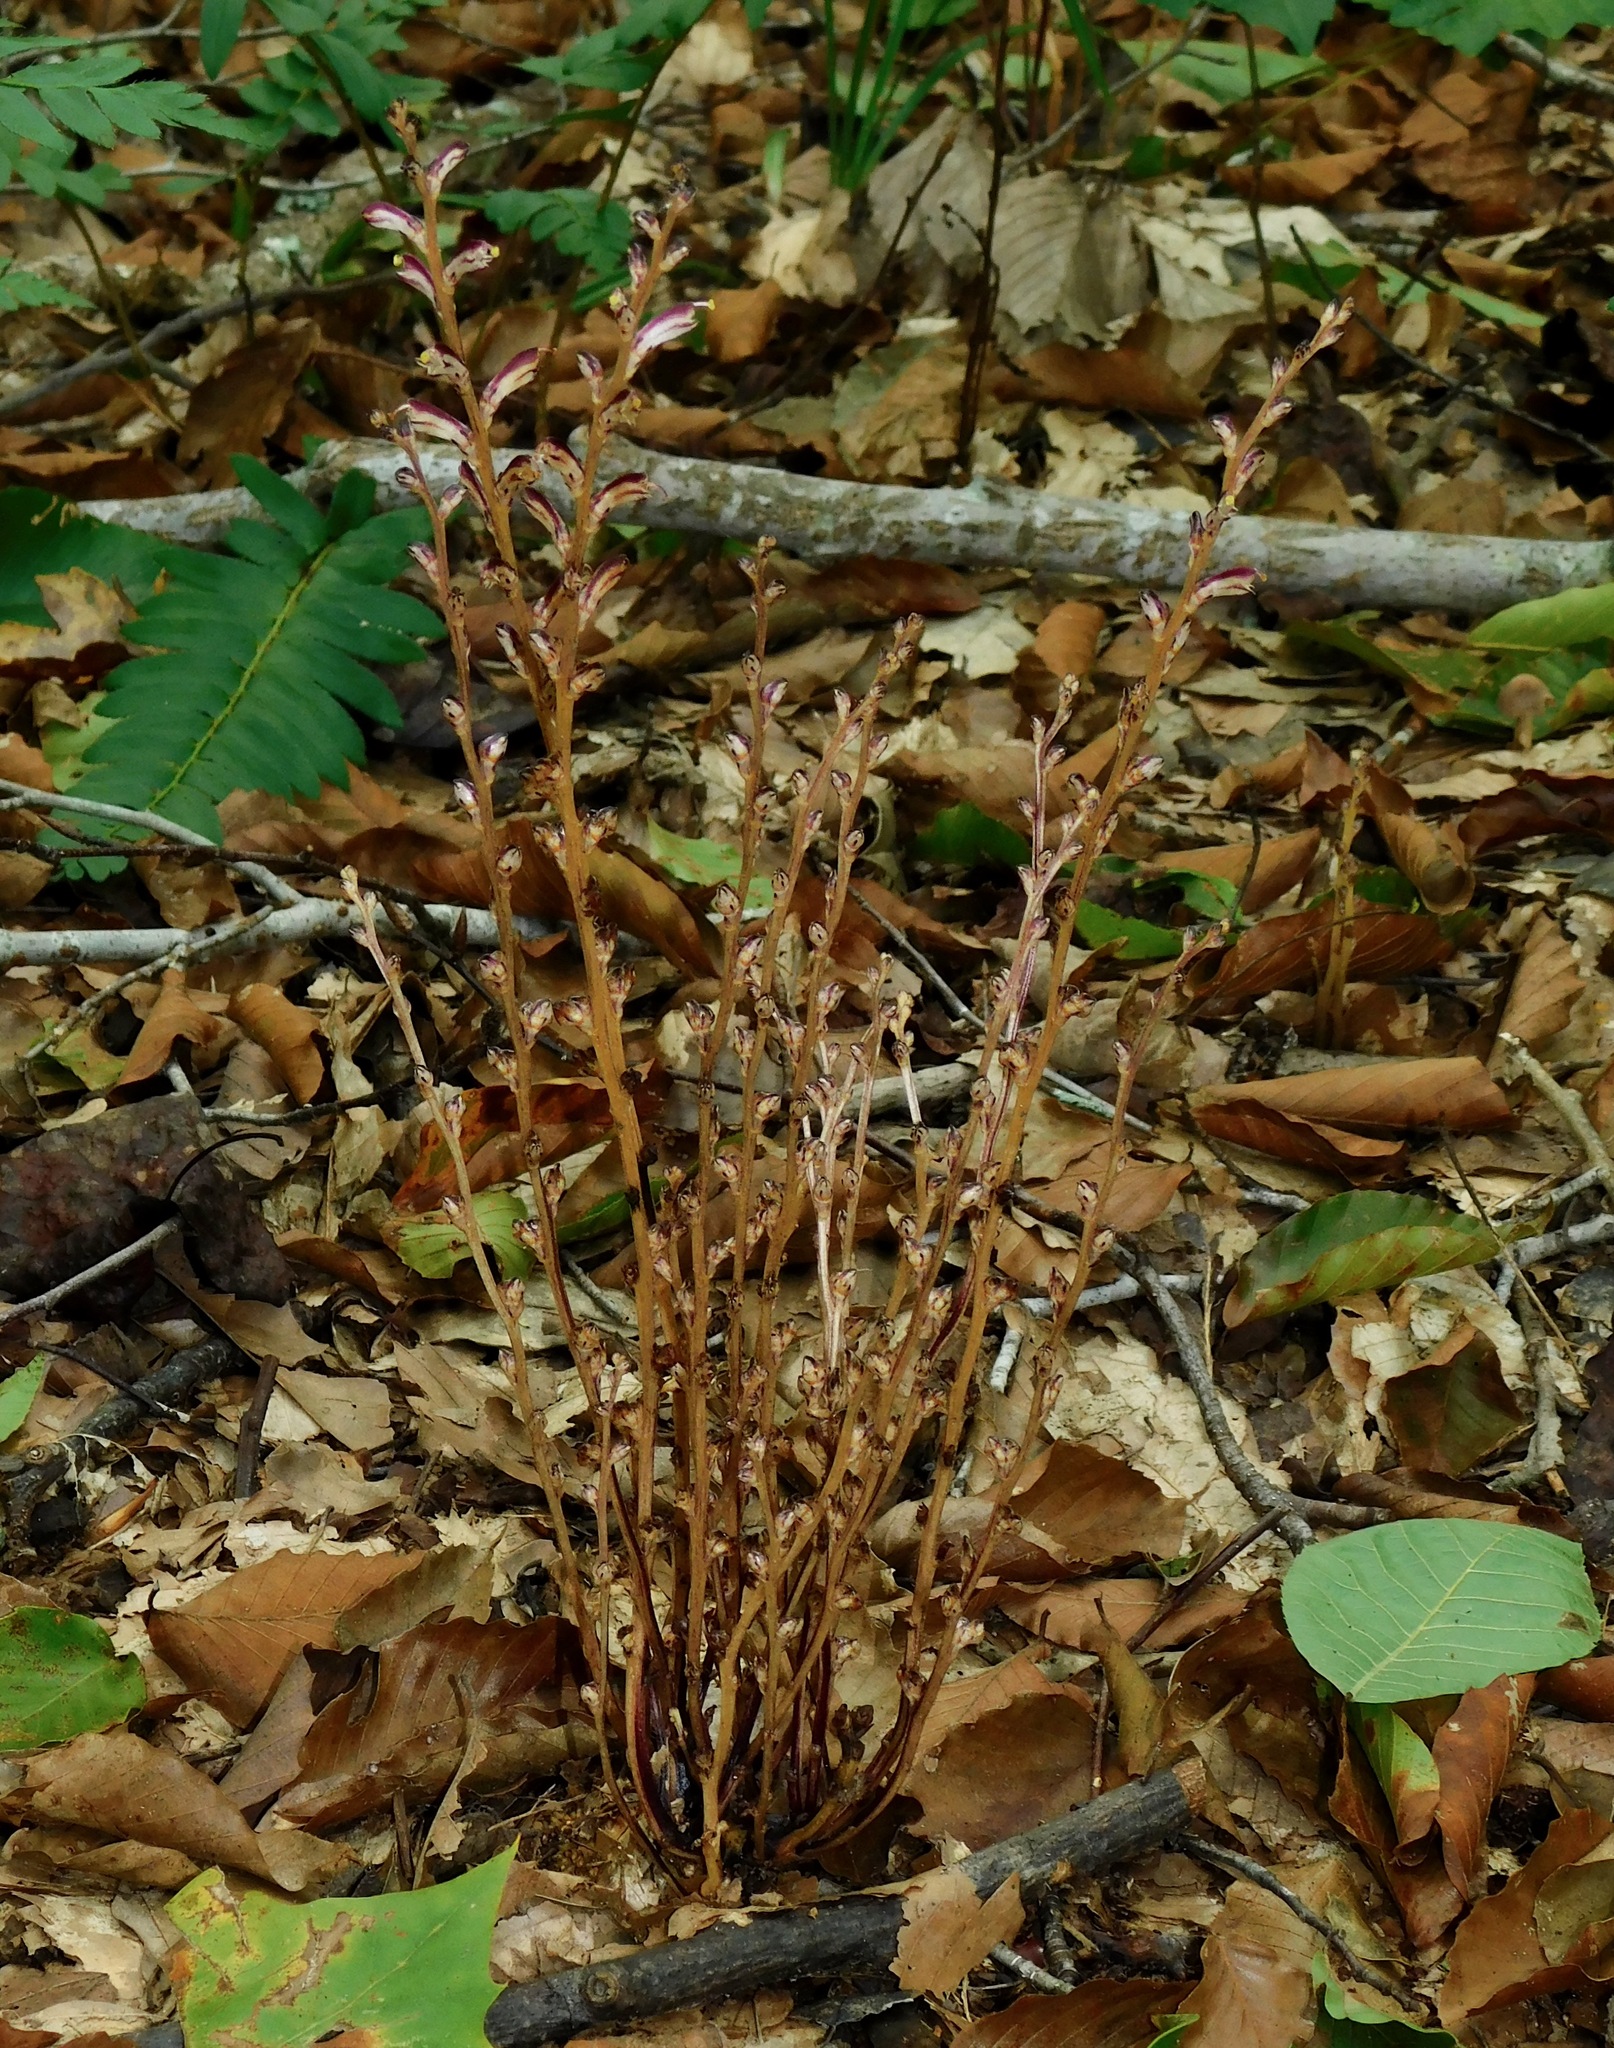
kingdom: Plantae
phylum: Tracheophyta
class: Magnoliopsida
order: Lamiales
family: Orobanchaceae
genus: Epifagus
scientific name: Epifagus virginiana
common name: Beechdrops
